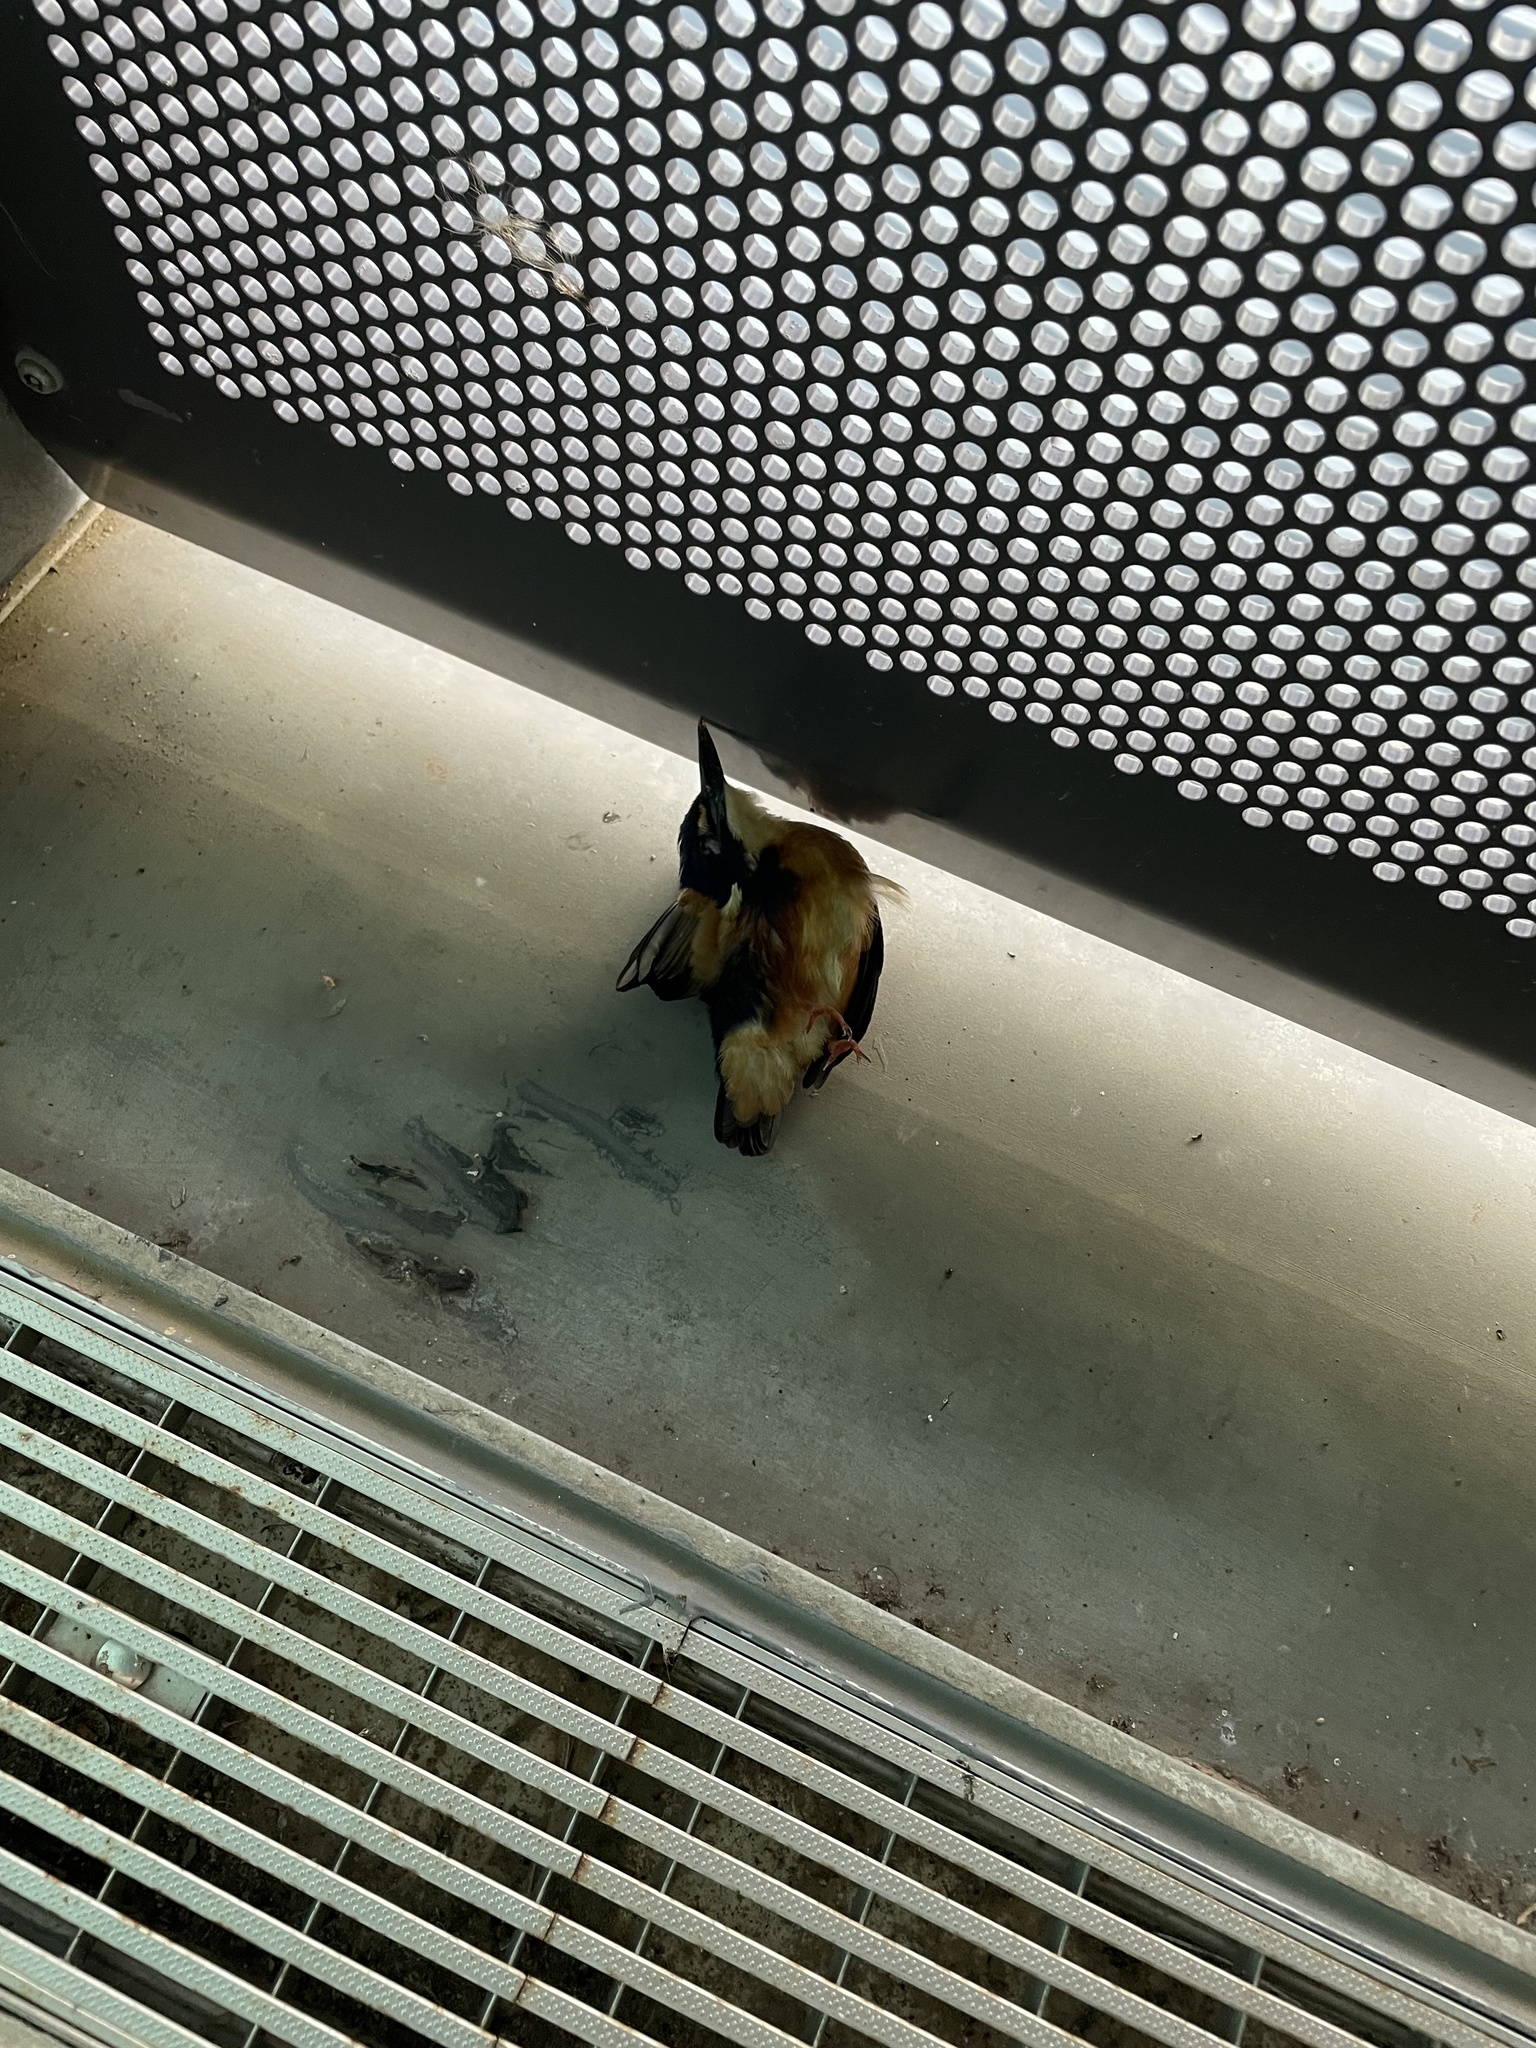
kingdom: Animalia
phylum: Chordata
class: Aves
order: Coraciiformes
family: Alcedinidae
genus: Ceyx
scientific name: Ceyx azureus
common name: Azure kingfisher
